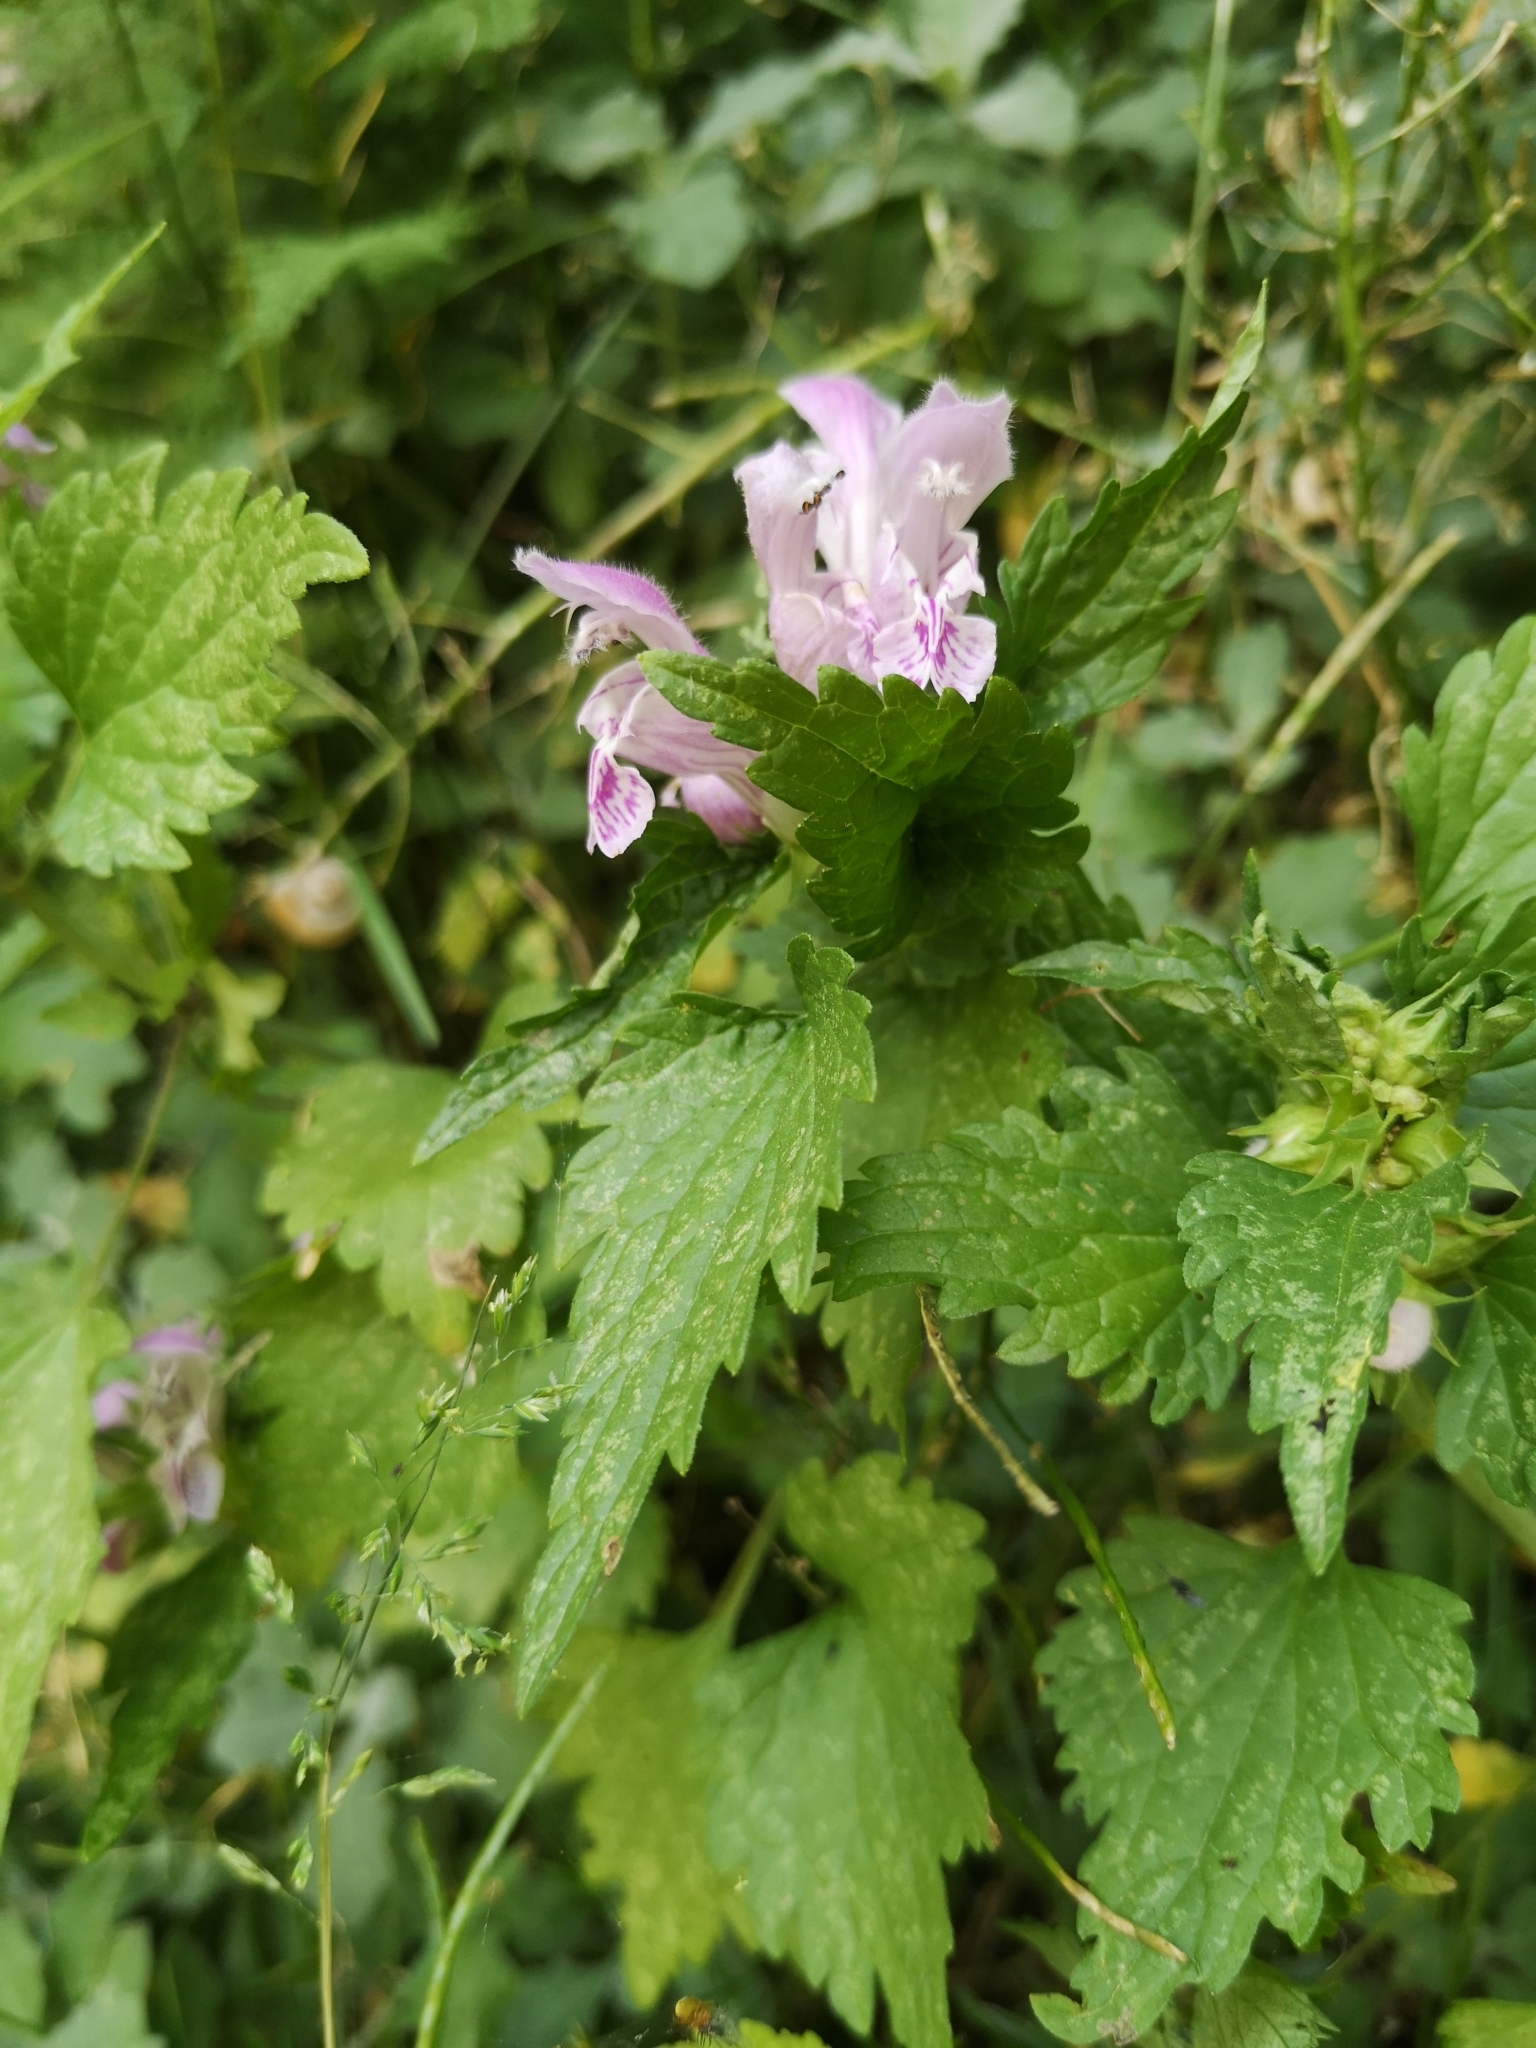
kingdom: Plantae
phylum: Tracheophyta
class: Magnoliopsida
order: Lamiales
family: Lamiaceae
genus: Lamium
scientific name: Lamium garganicum
